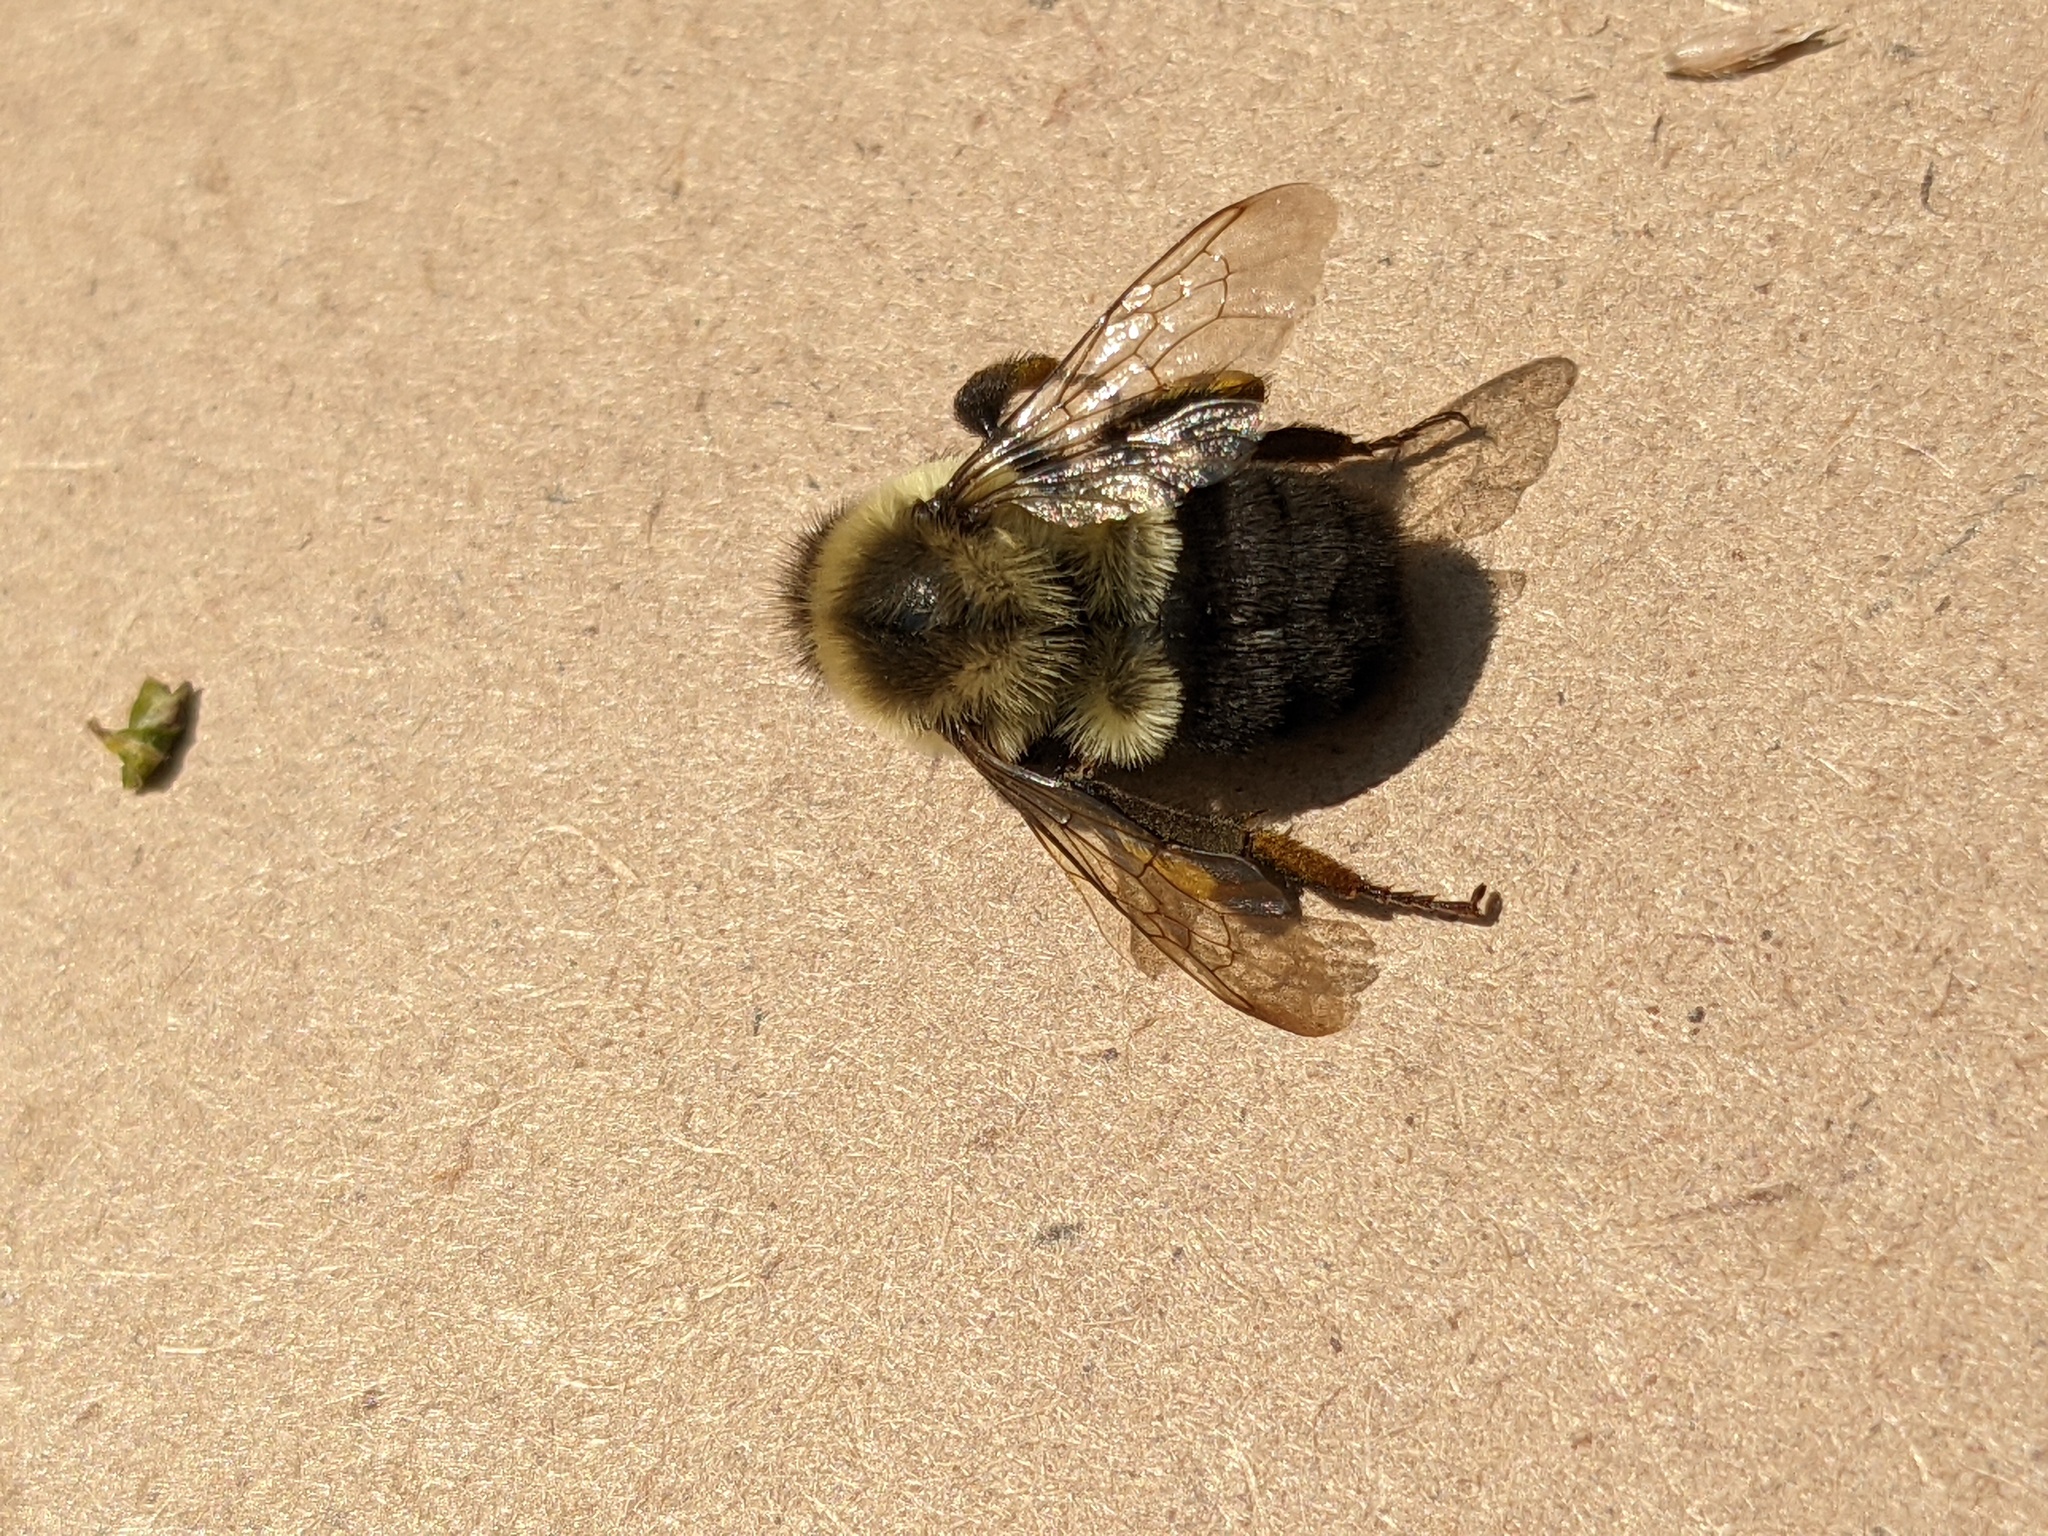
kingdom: Animalia
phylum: Arthropoda
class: Insecta
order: Hymenoptera
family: Apidae
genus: Bombus
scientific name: Bombus impatiens
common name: Common eastern bumble bee
